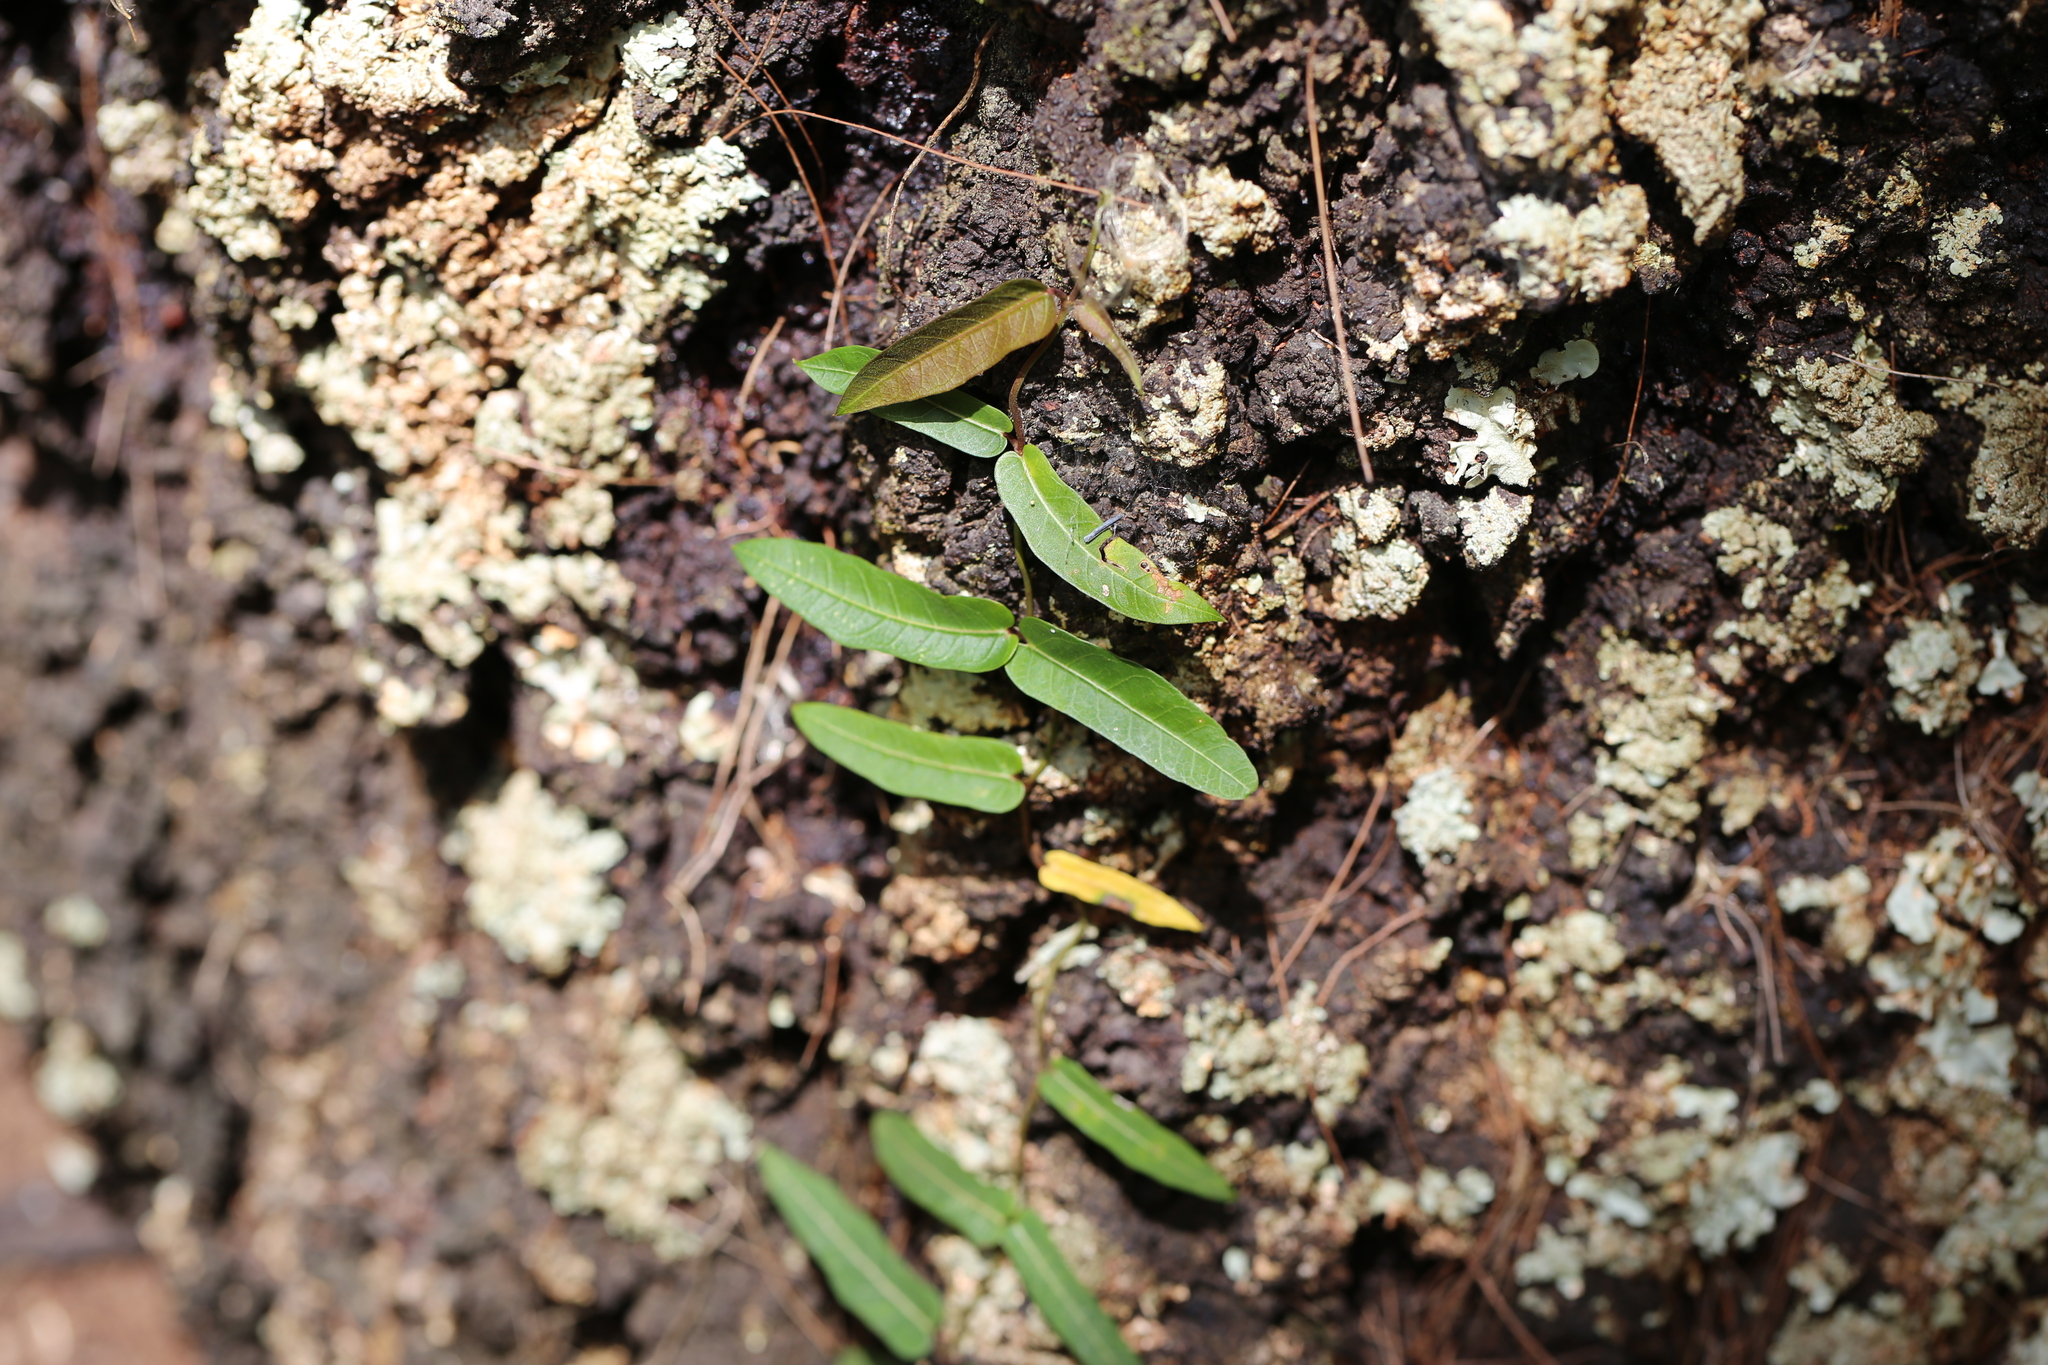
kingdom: Plantae
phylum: Tracheophyta
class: Magnoliopsida
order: Gentianales
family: Apocynaceae
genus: Parsonsia
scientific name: Parsonsia straminea
